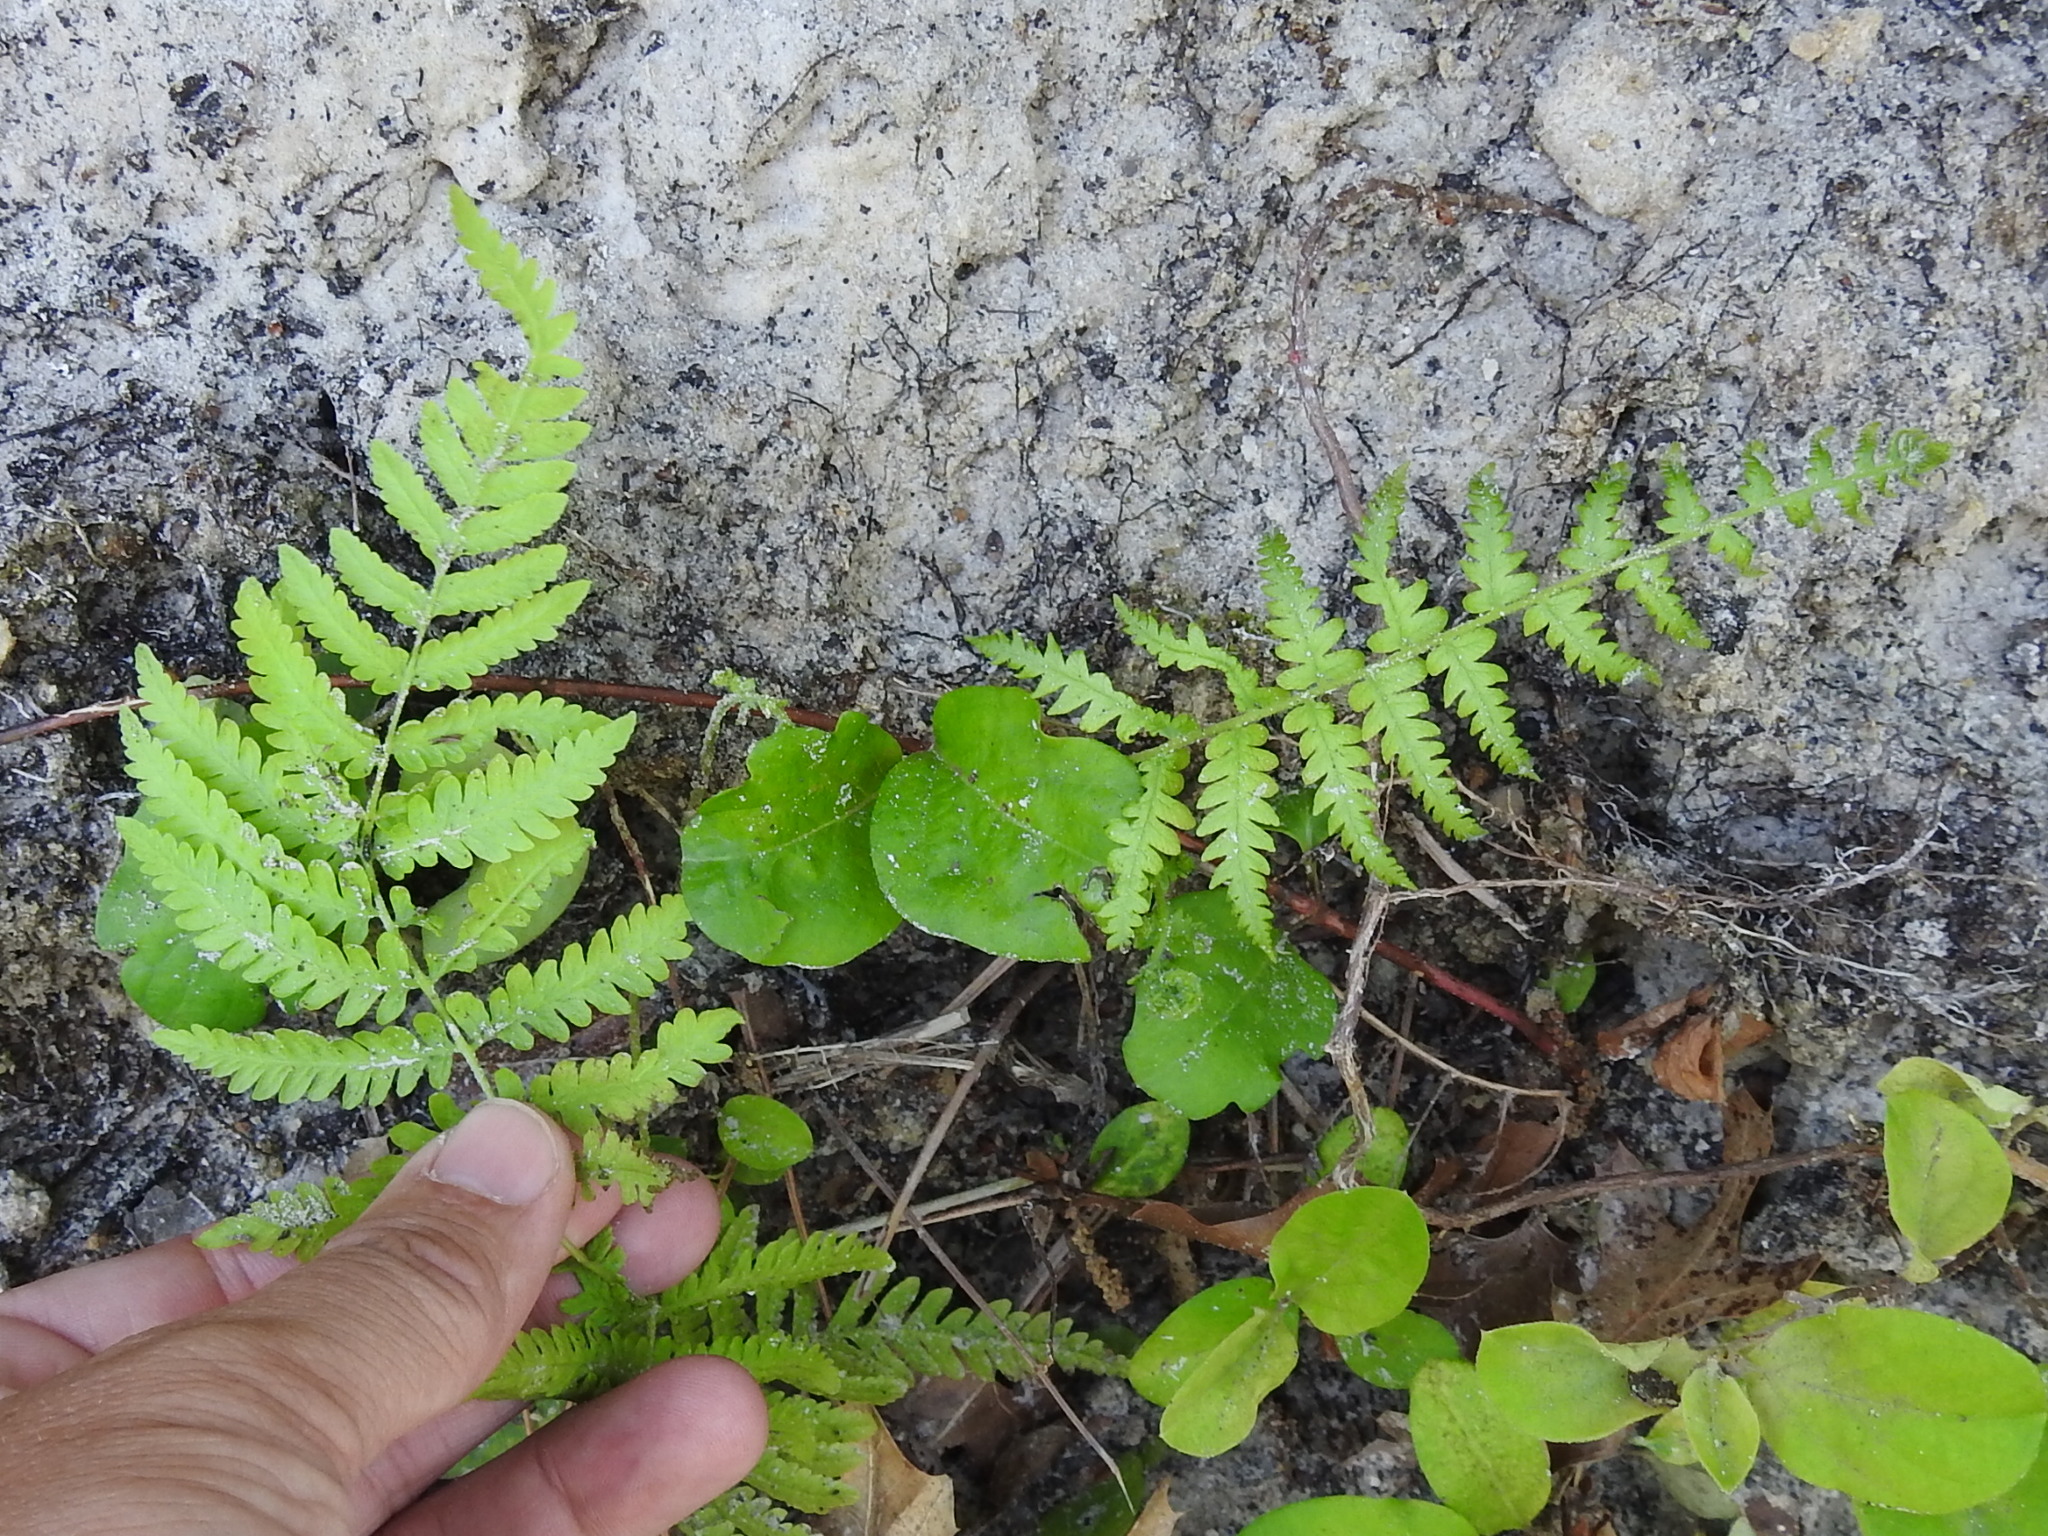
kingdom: Plantae
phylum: Tracheophyta
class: Polypodiopsida
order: Polypodiales
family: Thelypteridaceae
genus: Pelazoneuron
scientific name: Pelazoneuron kunthii
